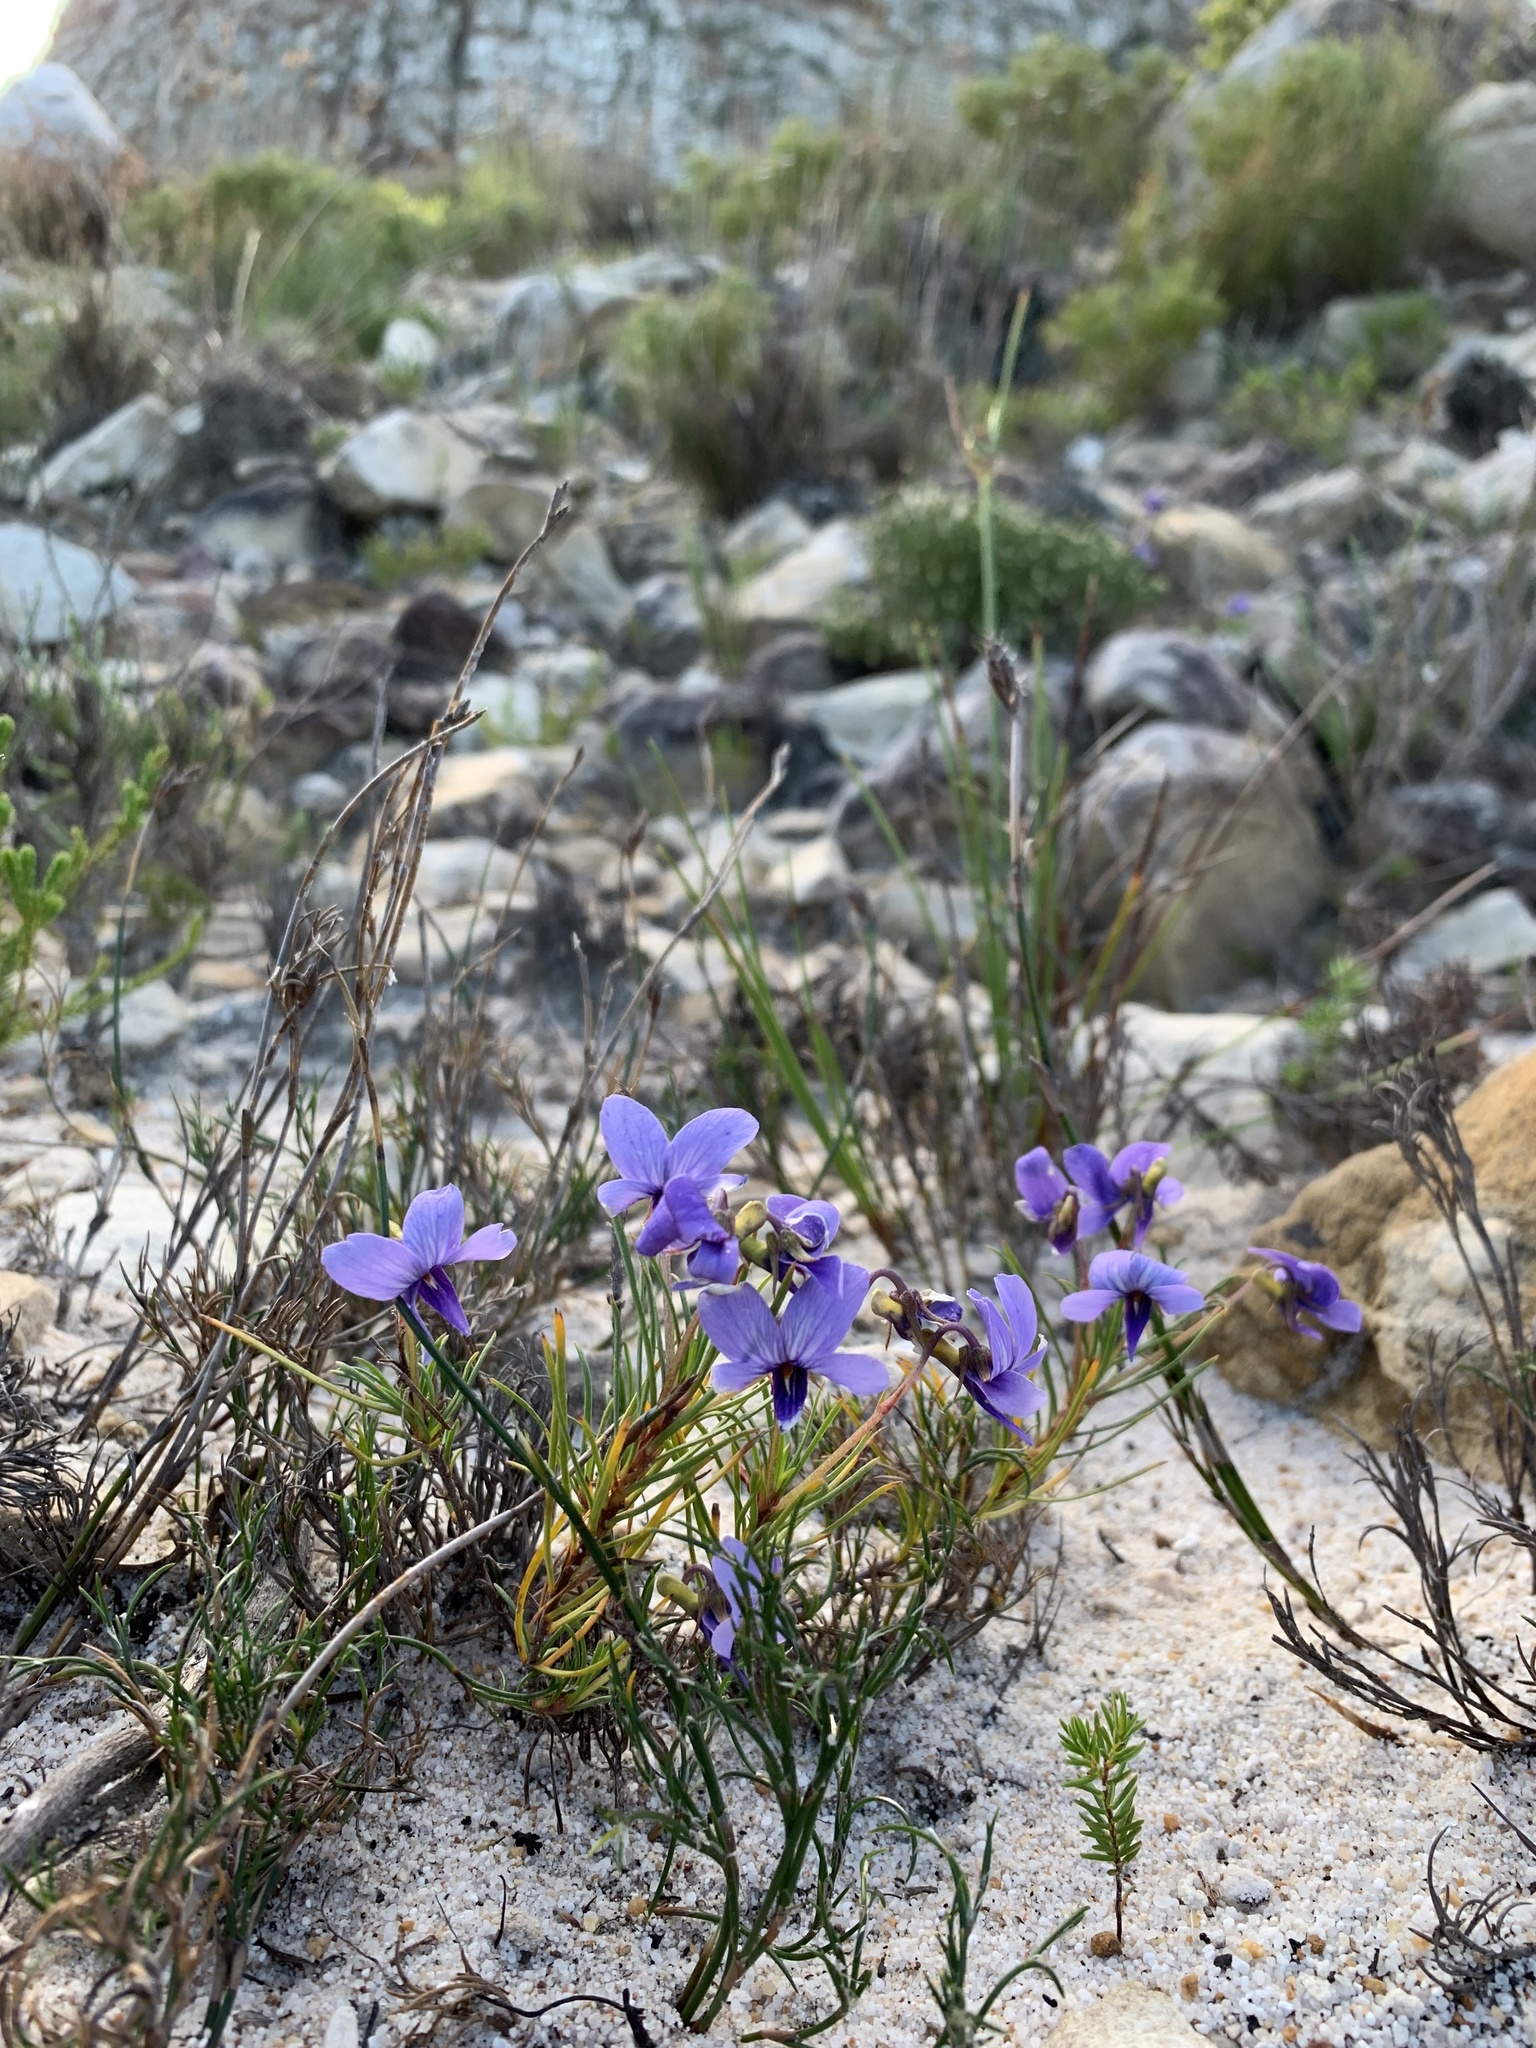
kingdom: Plantae
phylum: Tracheophyta
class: Magnoliopsida
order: Malpighiales
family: Violaceae
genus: Viola
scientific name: Viola decumbens
